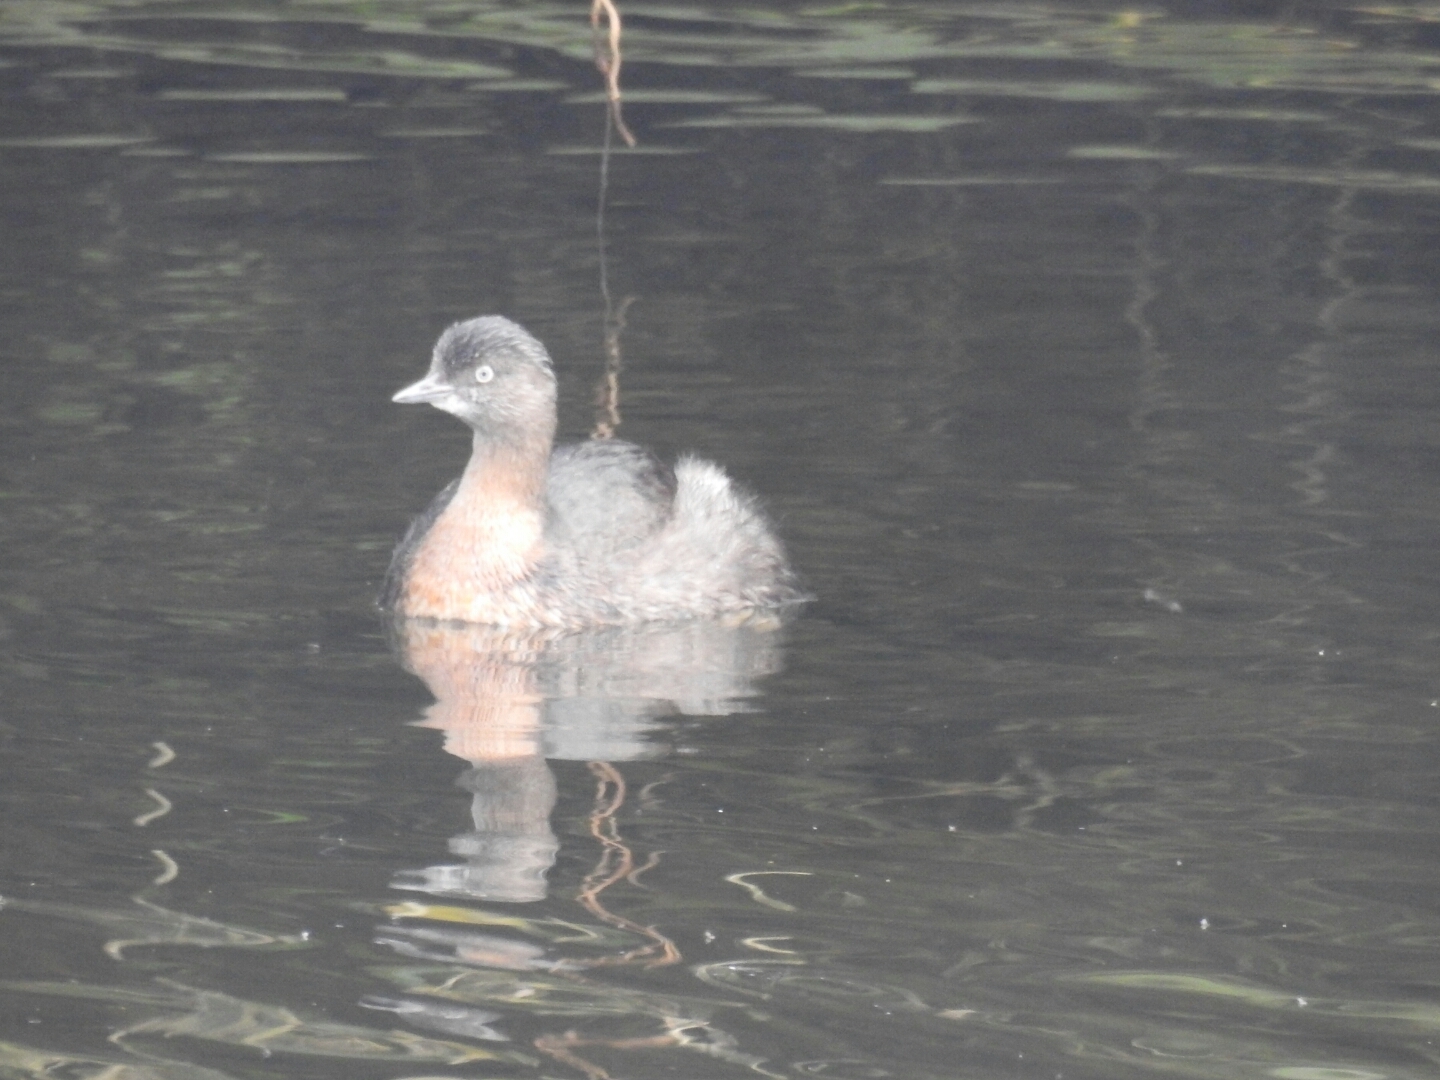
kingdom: Animalia
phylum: Chordata
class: Aves
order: Podicipediformes
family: Podicipedidae
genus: Poliocephalus
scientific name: Poliocephalus rufopectus
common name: New zealand grebe
